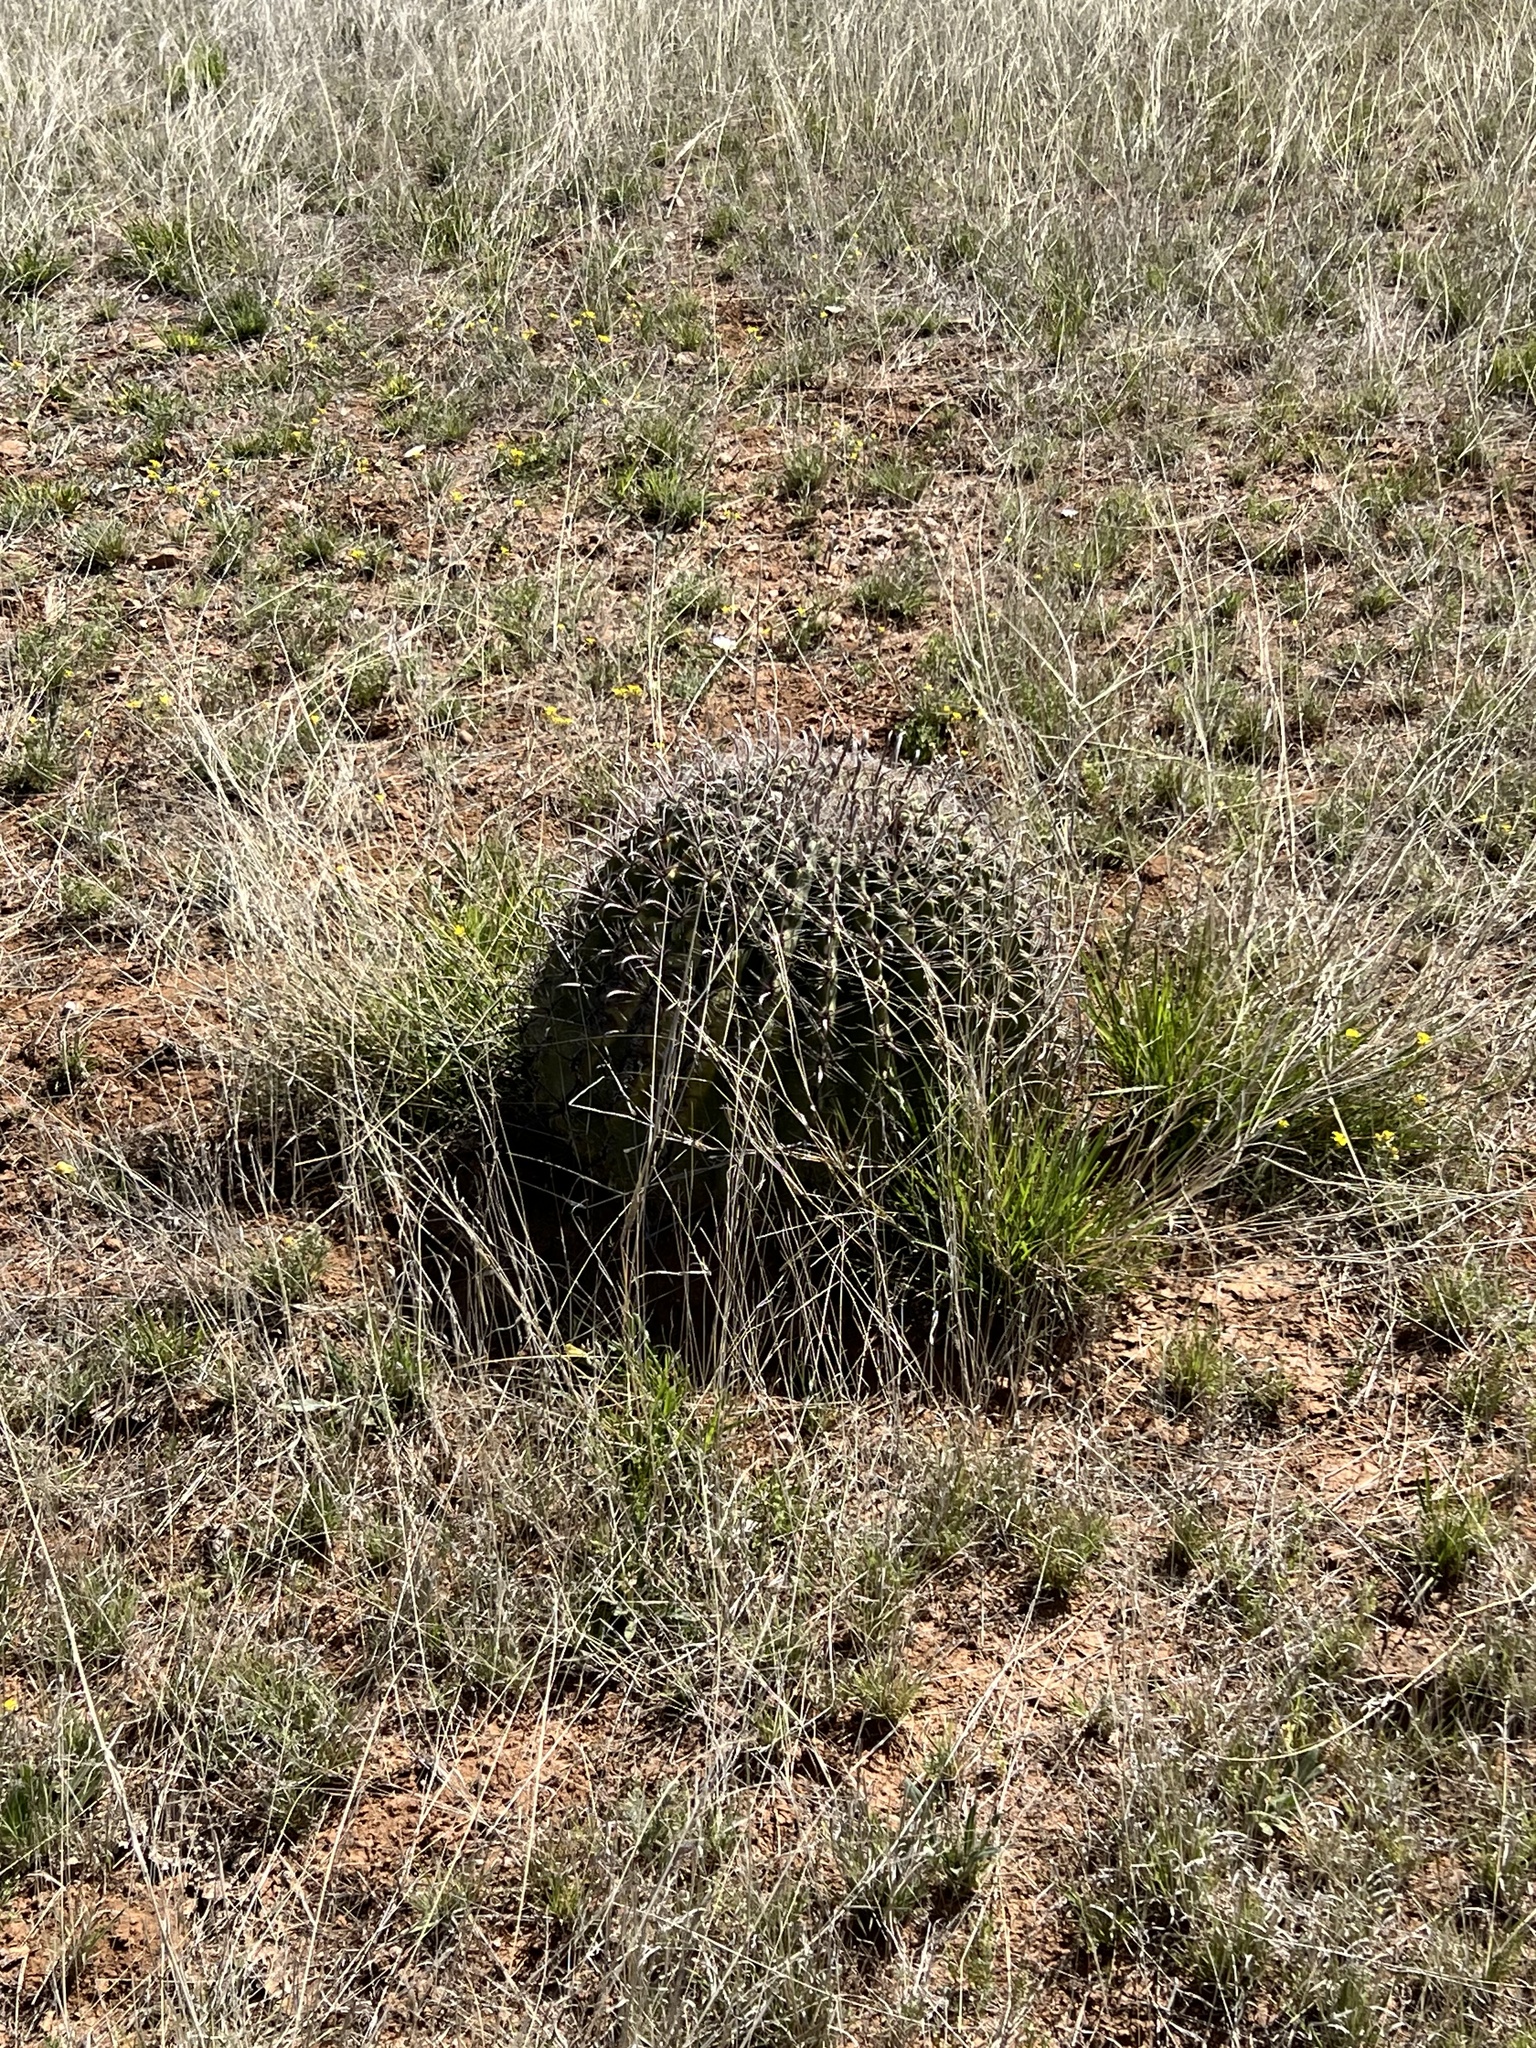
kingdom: Plantae
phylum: Tracheophyta
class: Magnoliopsida
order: Caryophyllales
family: Cactaceae
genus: Ferocactus
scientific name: Ferocactus wislizeni
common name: Candy barrel cactus
